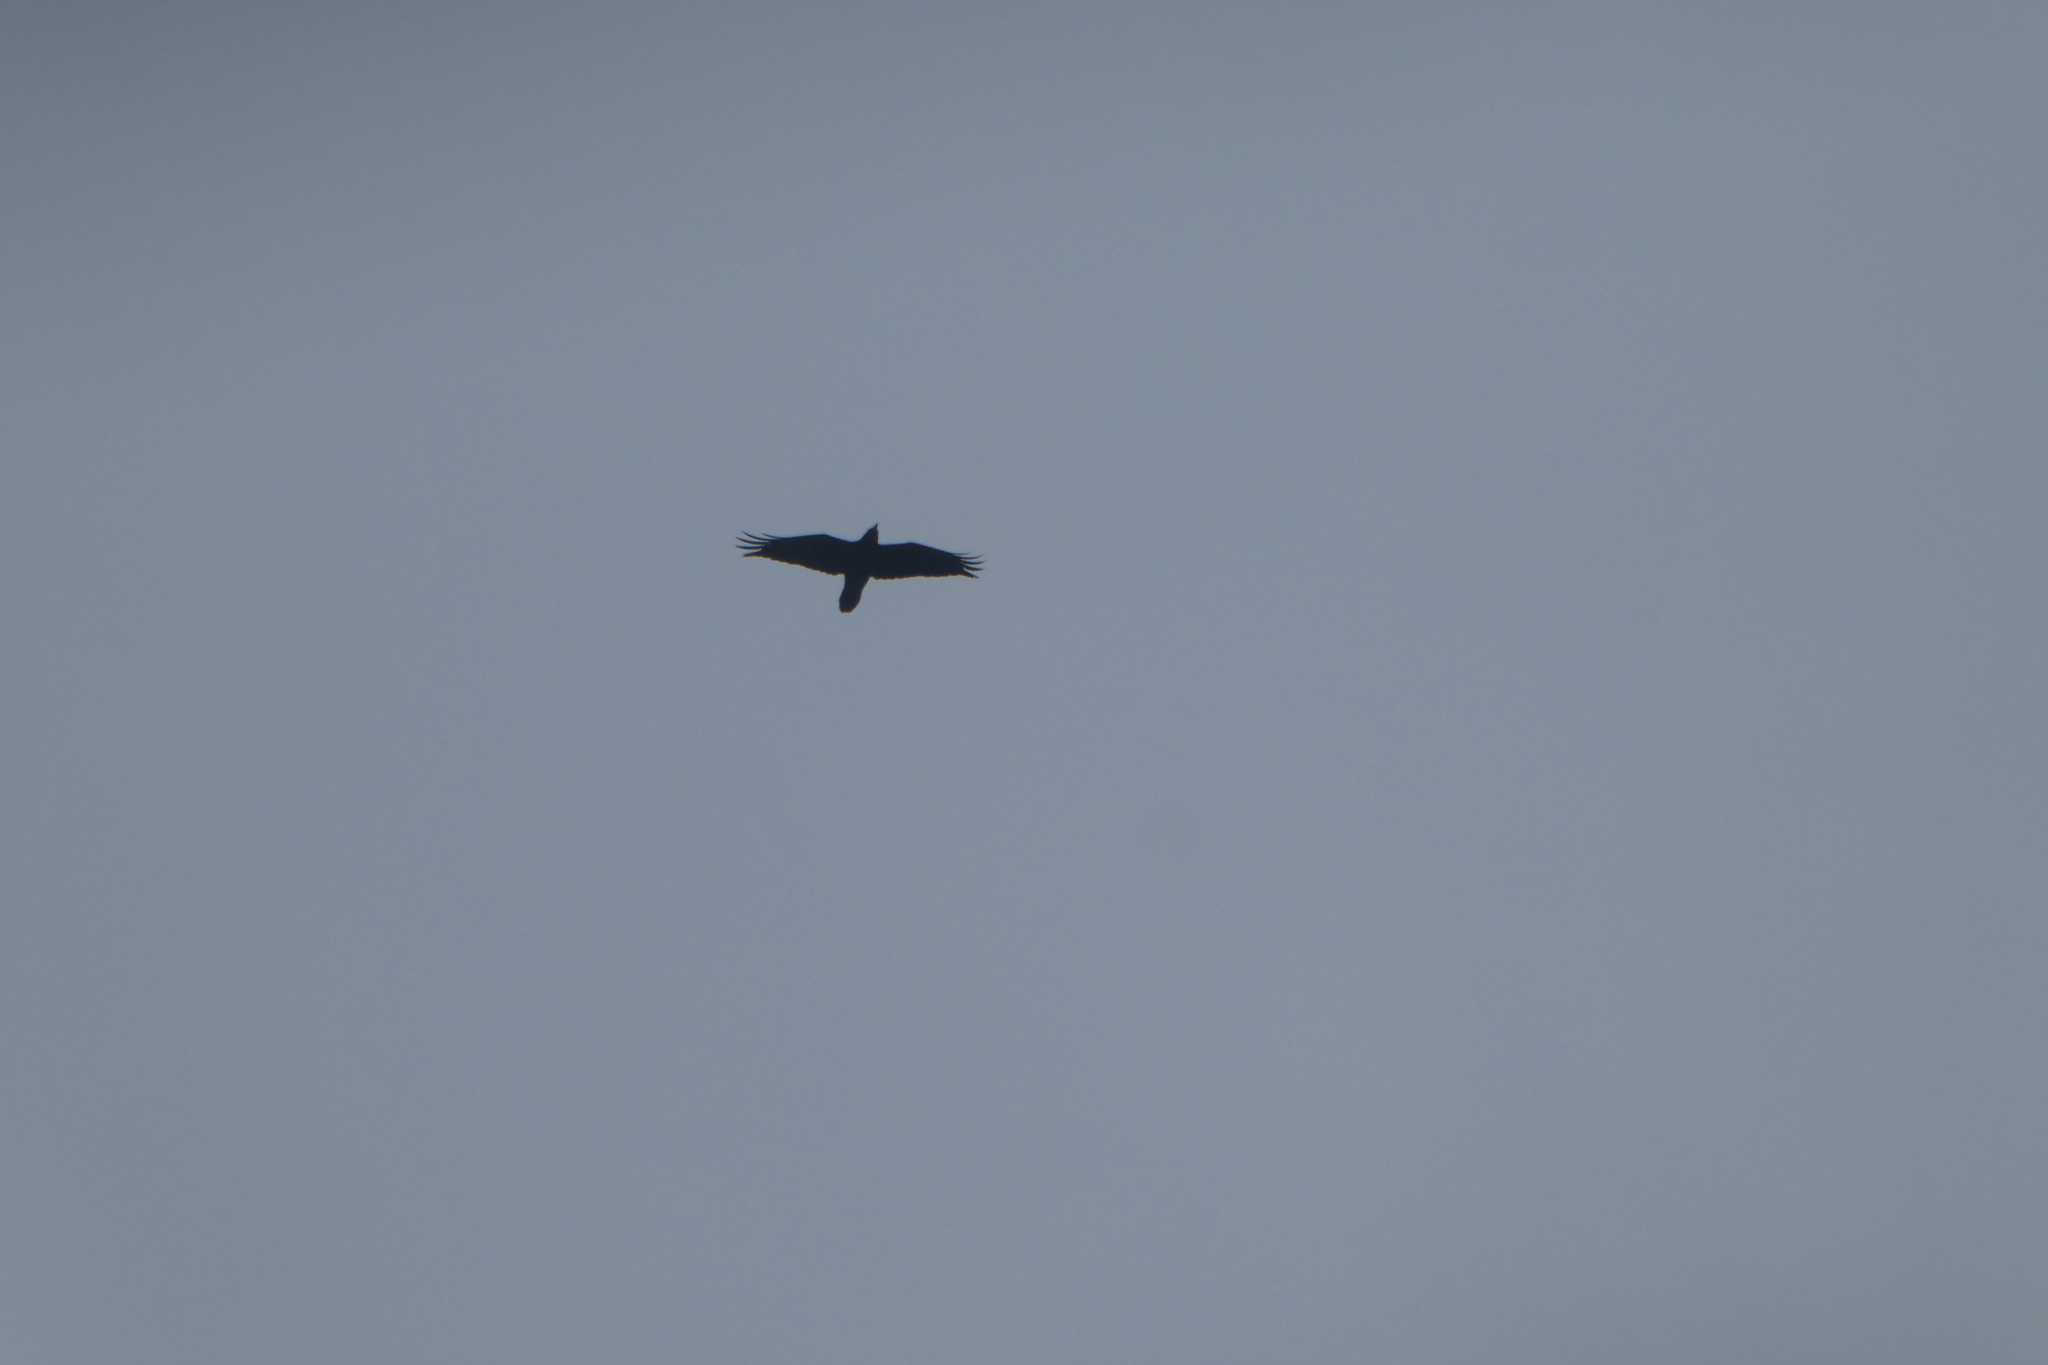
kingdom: Animalia
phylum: Chordata
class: Aves
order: Passeriformes
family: Corvidae
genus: Corvus
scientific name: Corvus corax
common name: Common raven
